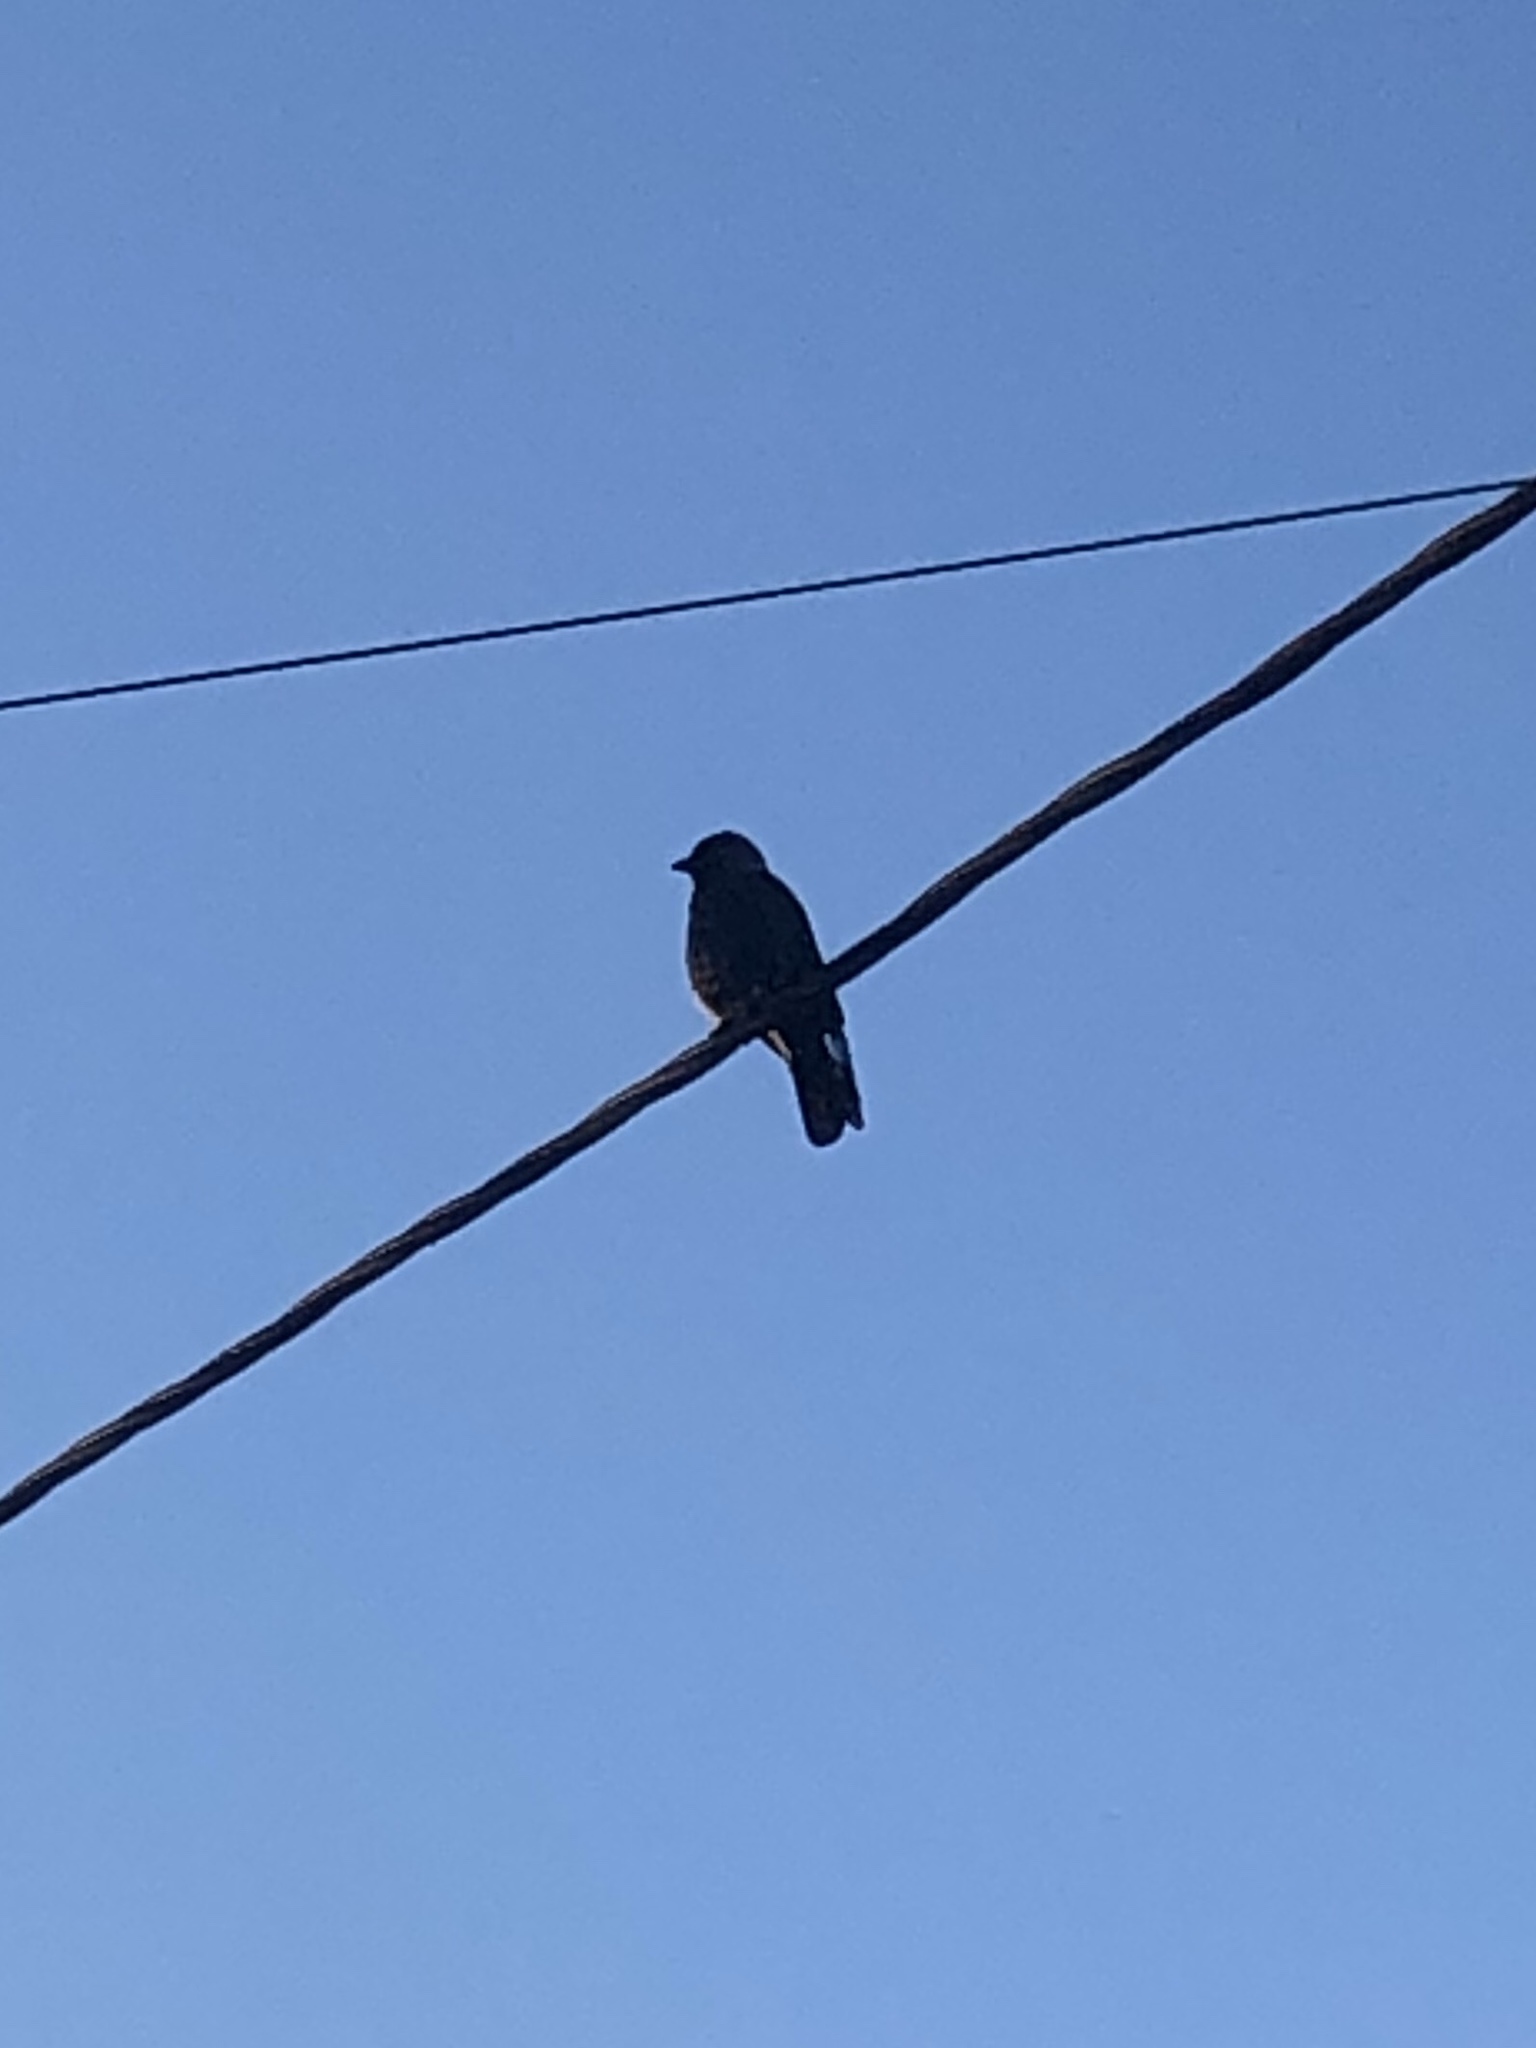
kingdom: Animalia
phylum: Chordata
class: Aves
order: Passeriformes
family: Corvidae
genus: Coloeus
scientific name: Coloeus monedula
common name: Western jackdaw
